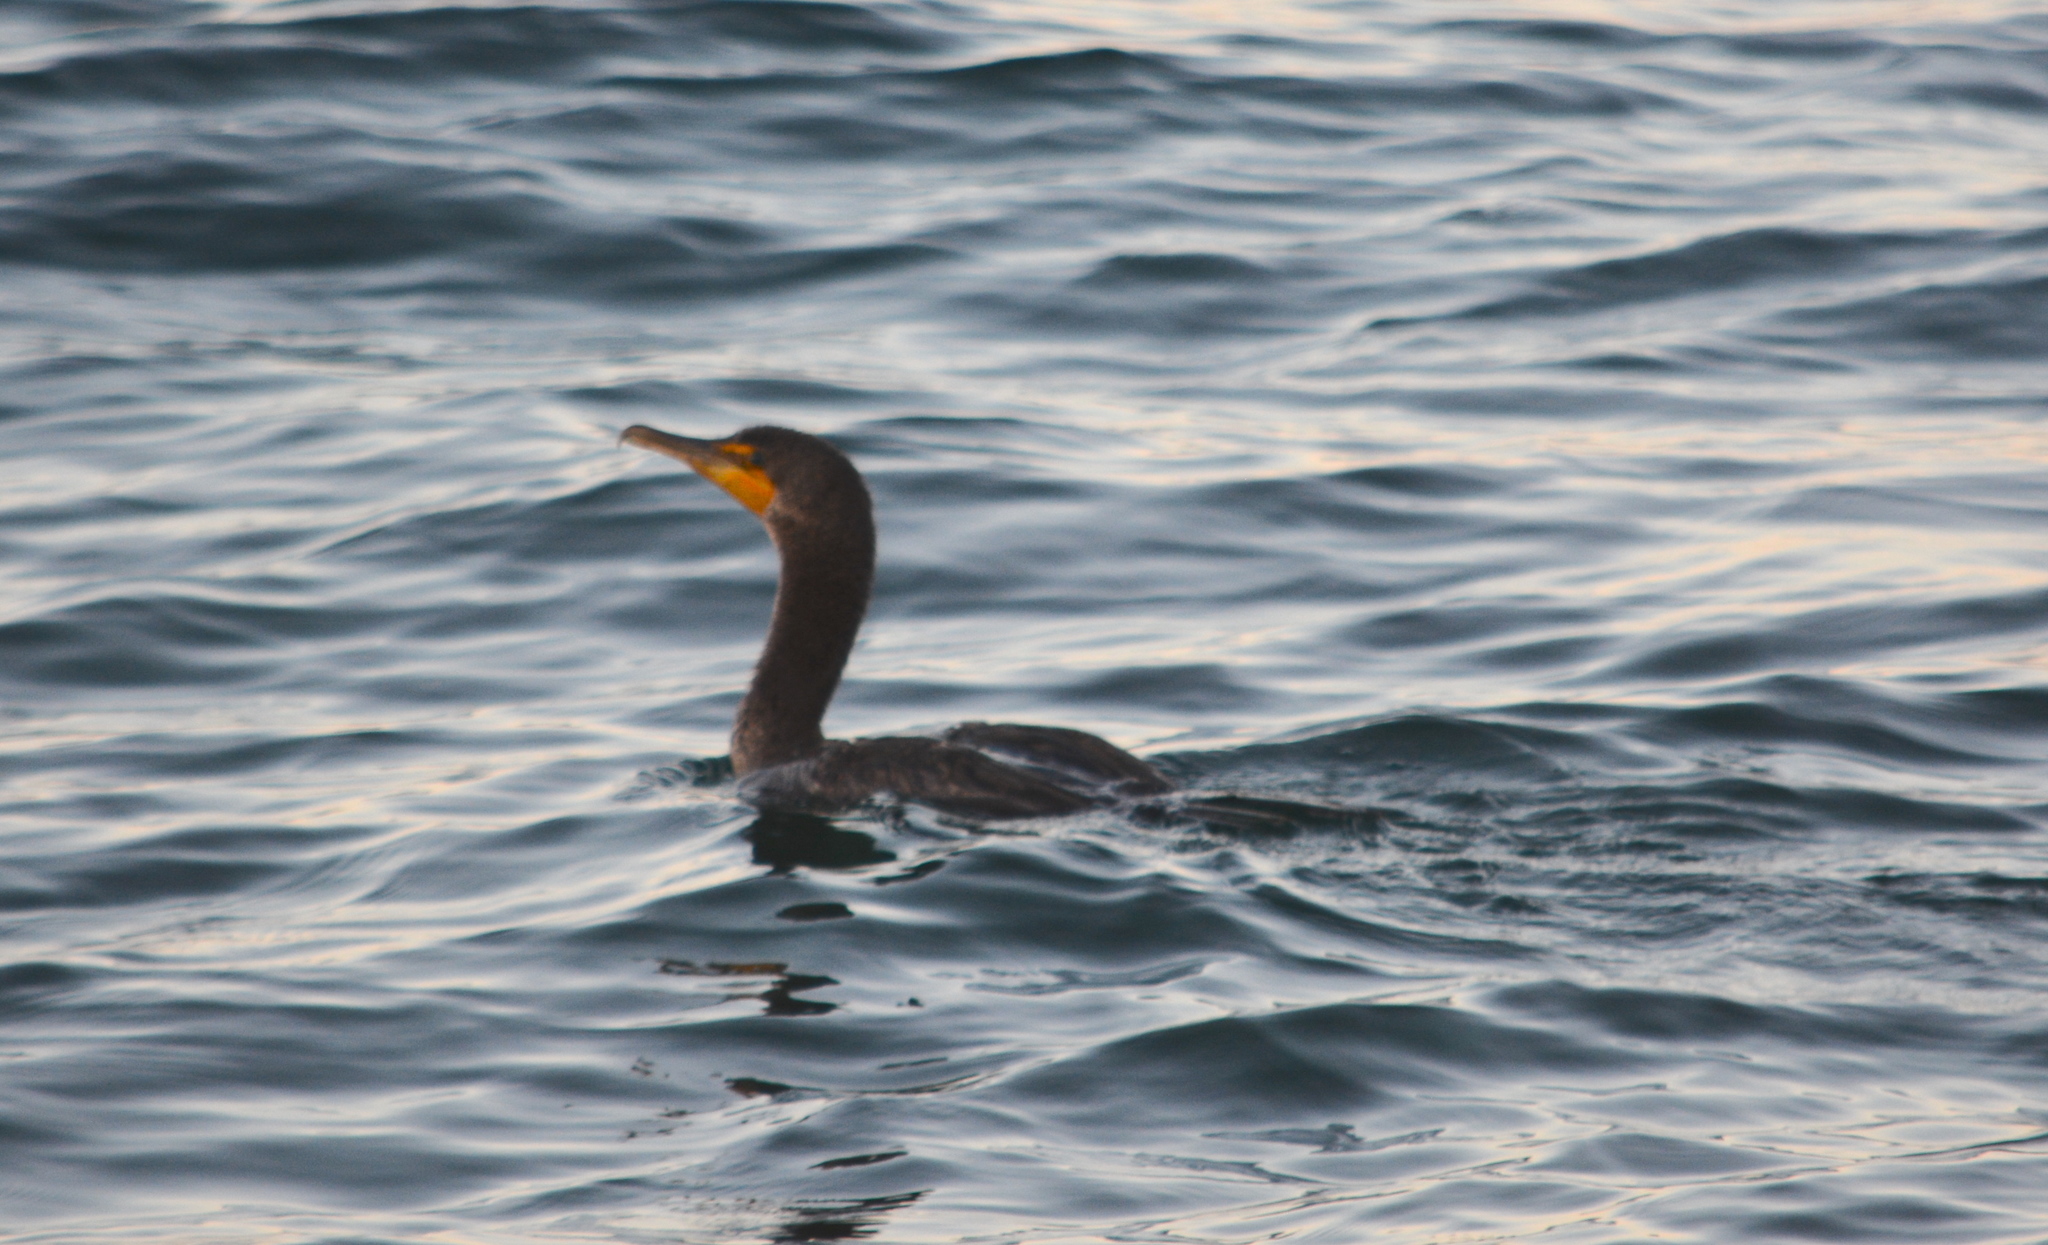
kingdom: Animalia
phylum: Chordata
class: Aves
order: Suliformes
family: Phalacrocoracidae
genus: Phalacrocorax
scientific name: Phalacrocorax auritus
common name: Double-crested cormorant
